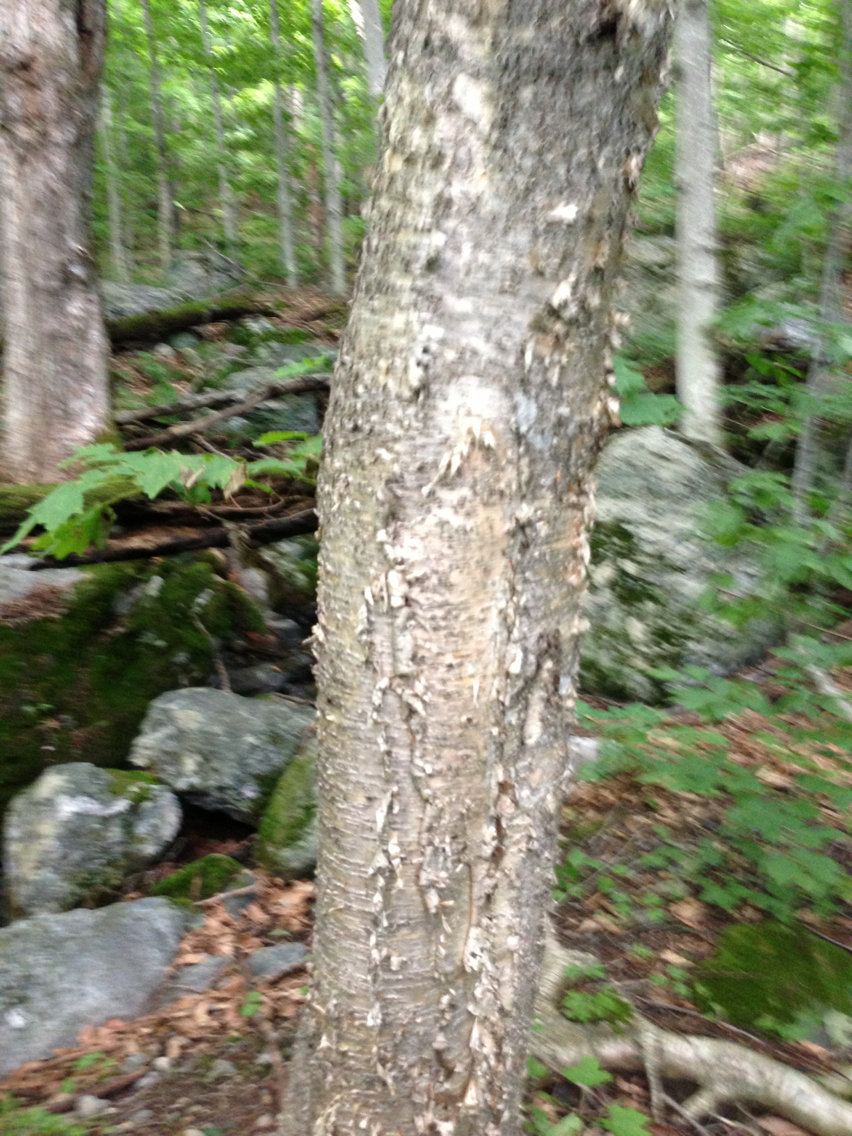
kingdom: Plantae
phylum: Tracheophyta
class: Magnoliopsida
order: Fagales
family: Betulaceae
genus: Betula
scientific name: Betula alleghaniensis
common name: Yellow birch
